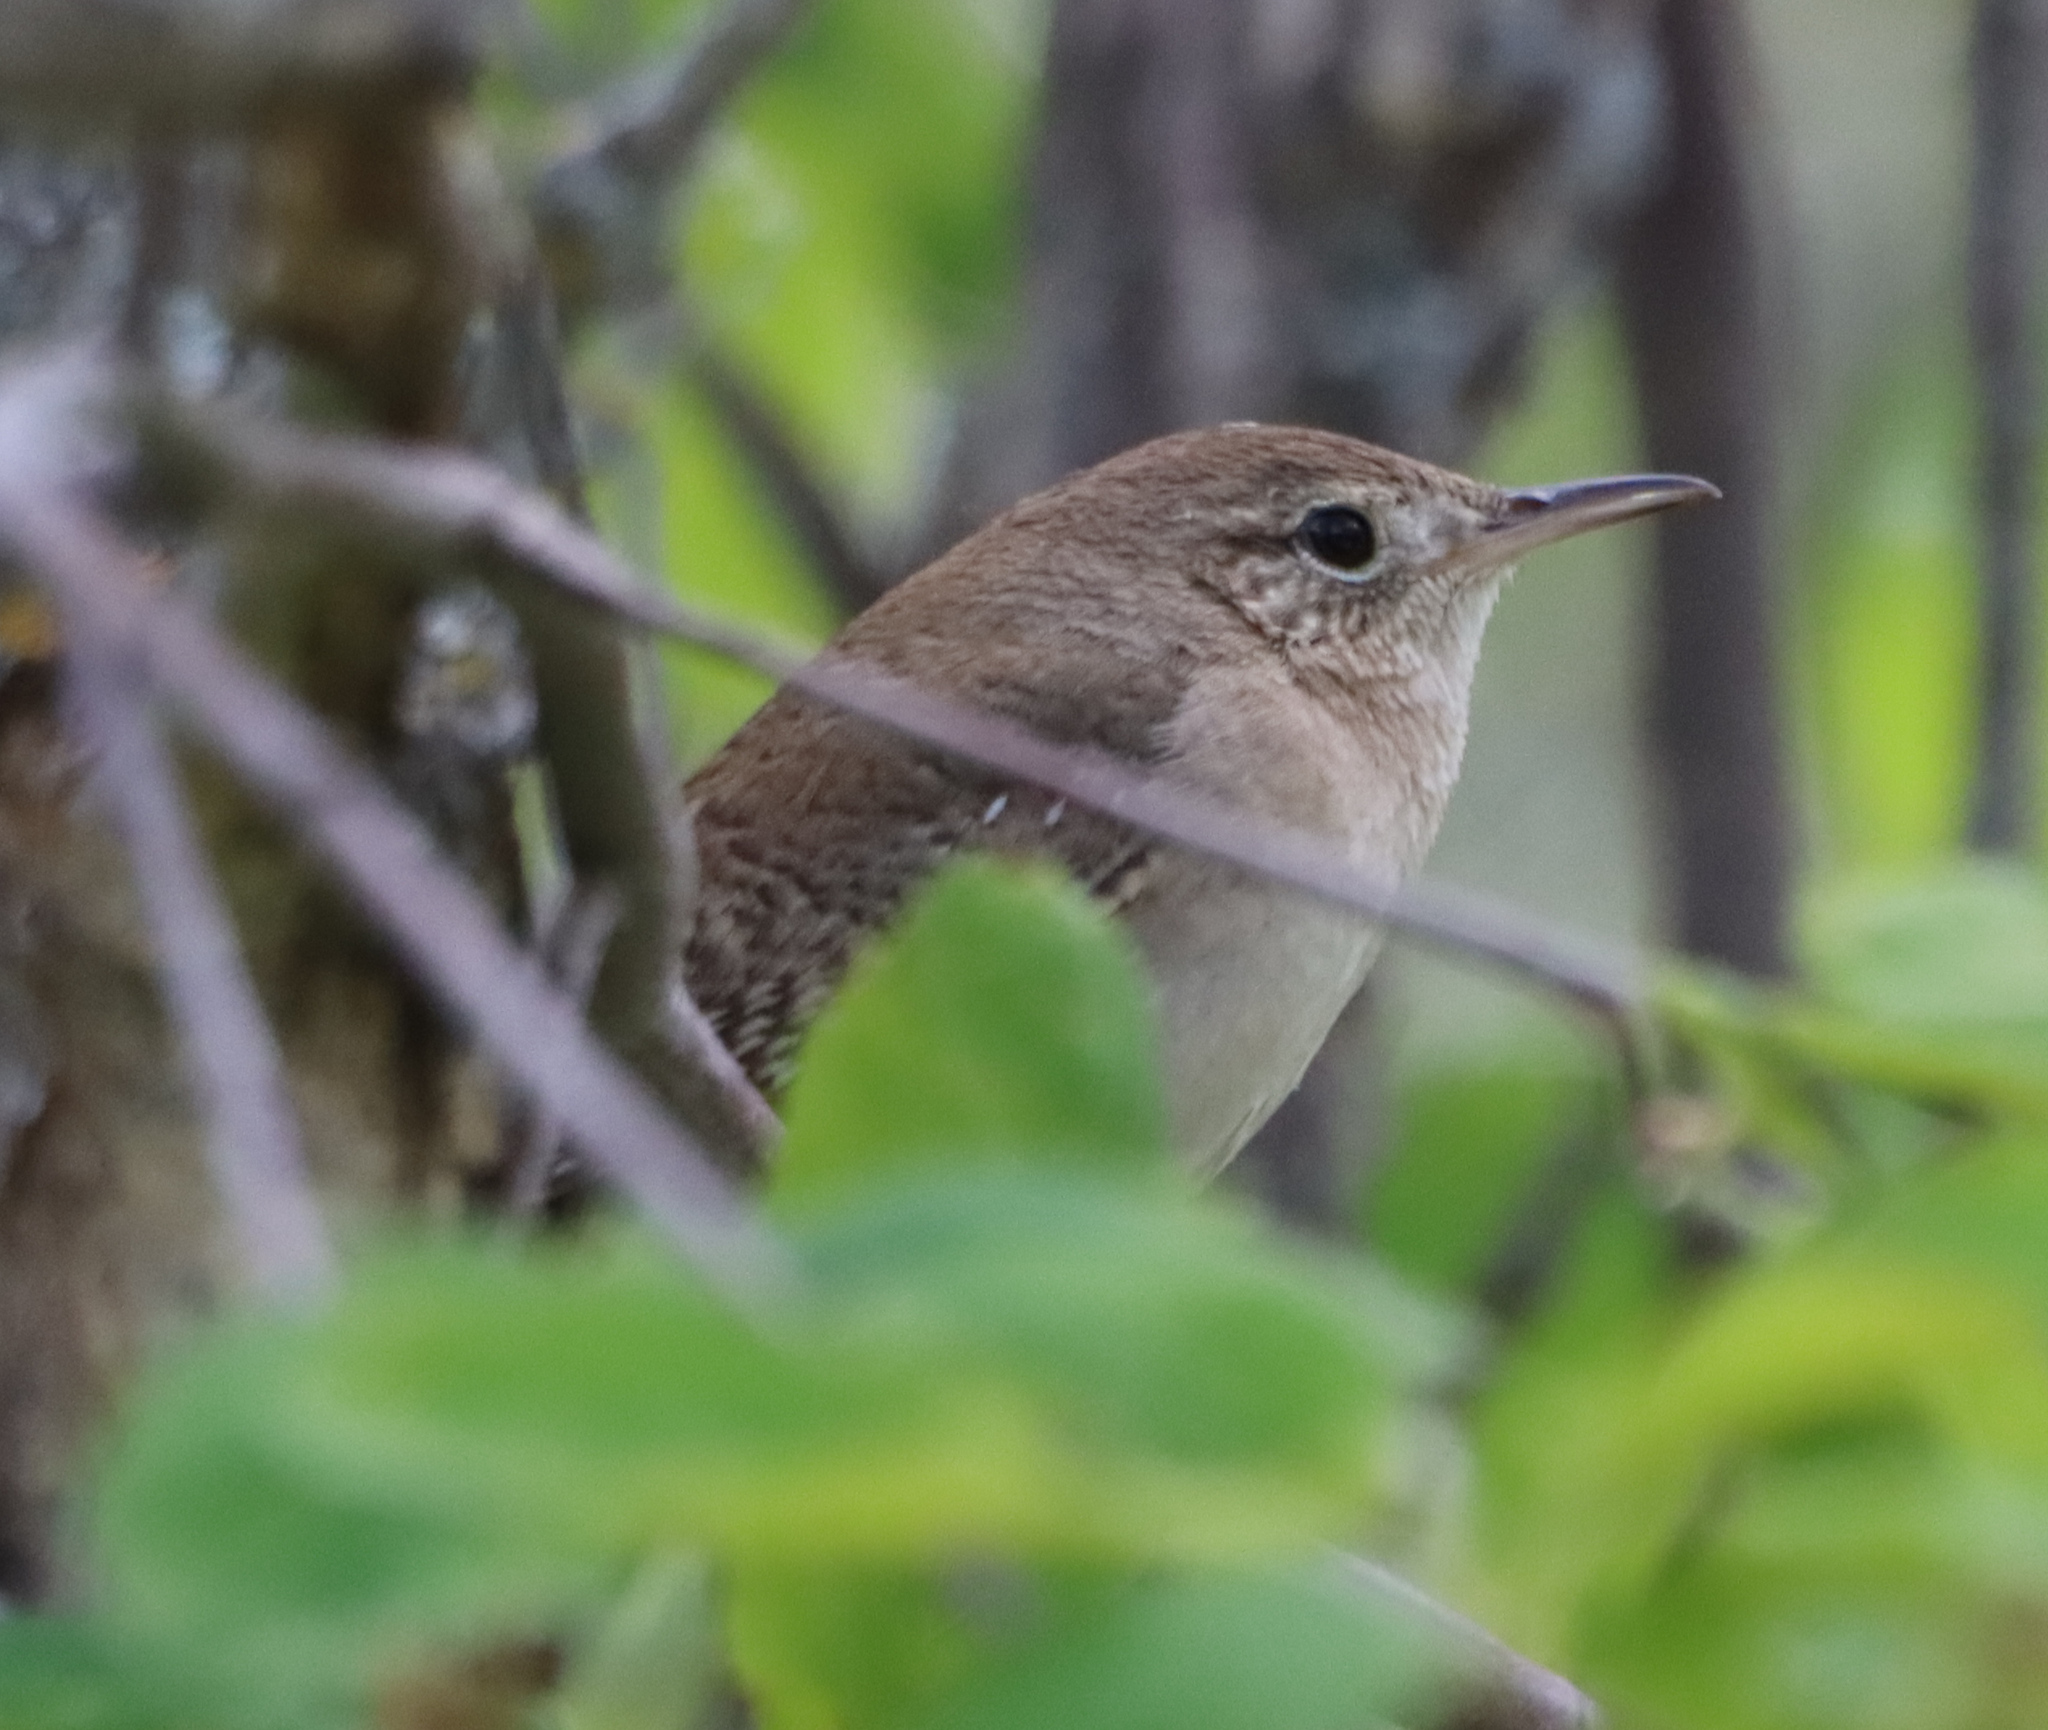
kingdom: Animalia
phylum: Chordata
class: Aves
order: Passeriformes
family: Troglodytidae
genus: Troglodytes
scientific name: Troglodytes aedon
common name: House wren
